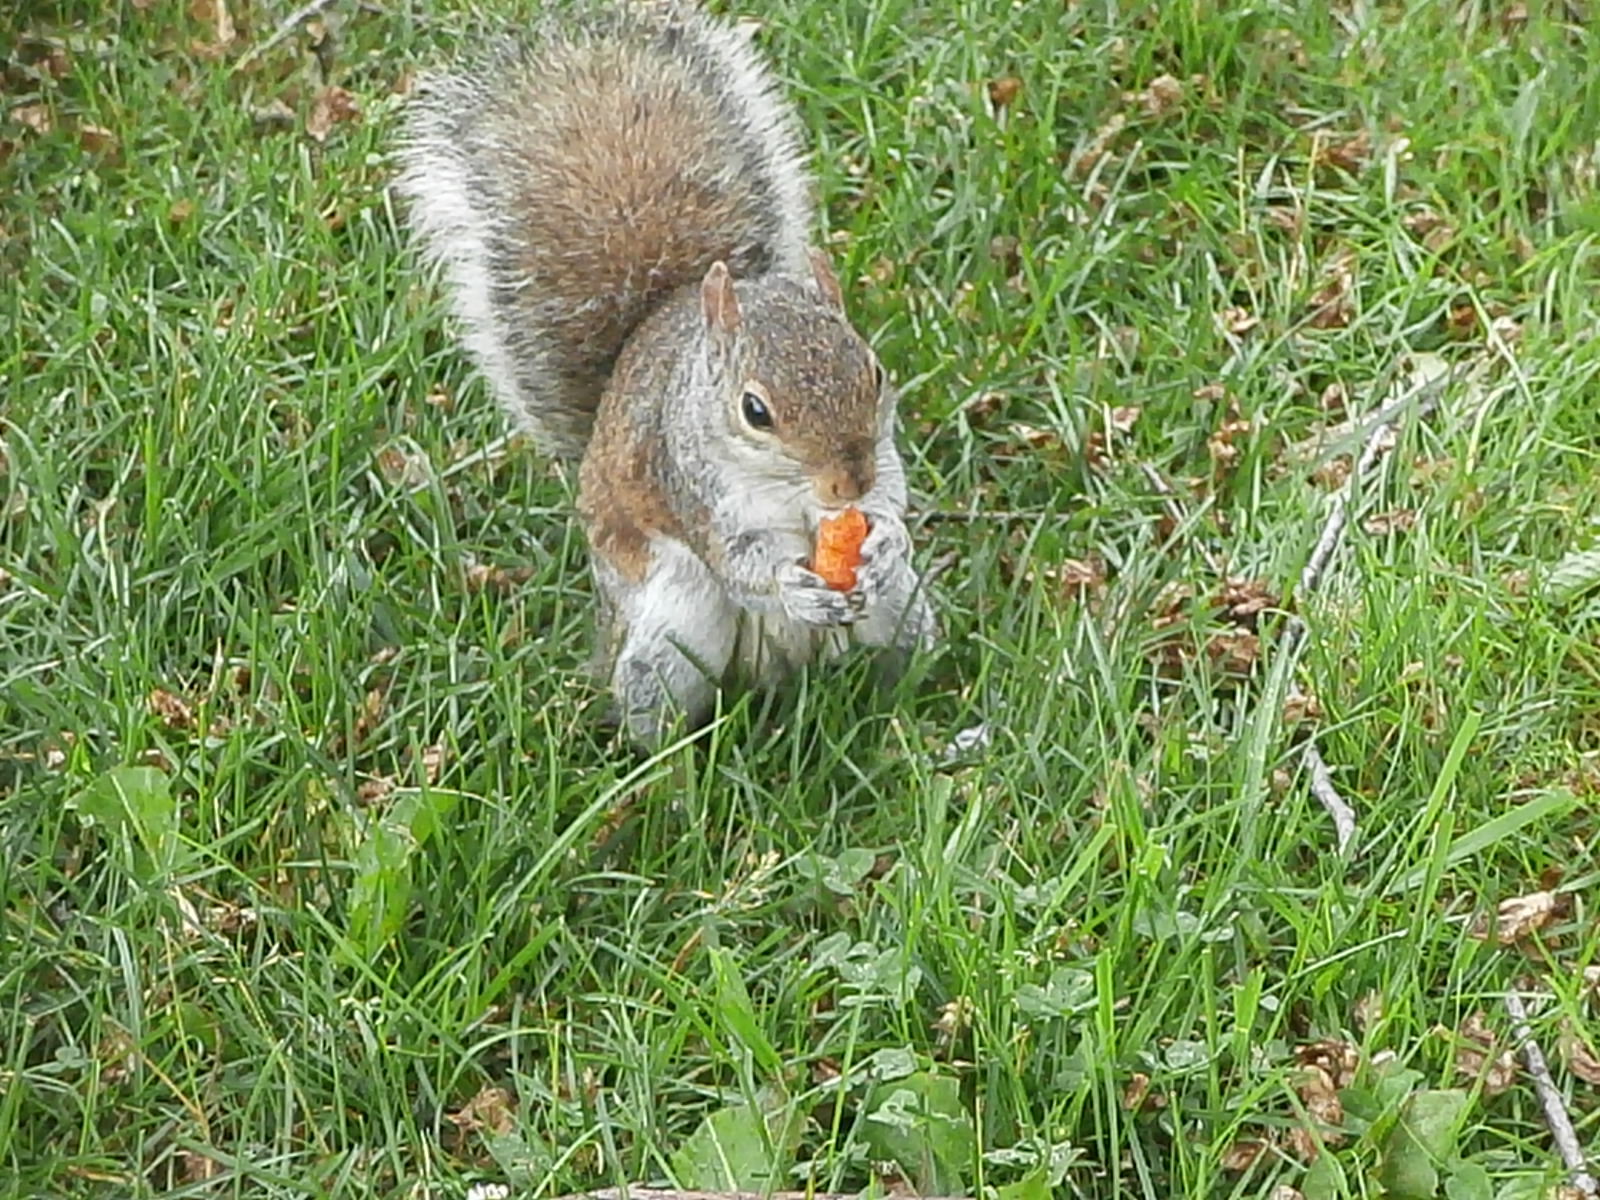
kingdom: Animalia
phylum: Chordata
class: Mammalia
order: Rodentia
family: Sciuridae
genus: Sciurus
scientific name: Sciurus carolinensis
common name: Eastern gray squirrel
